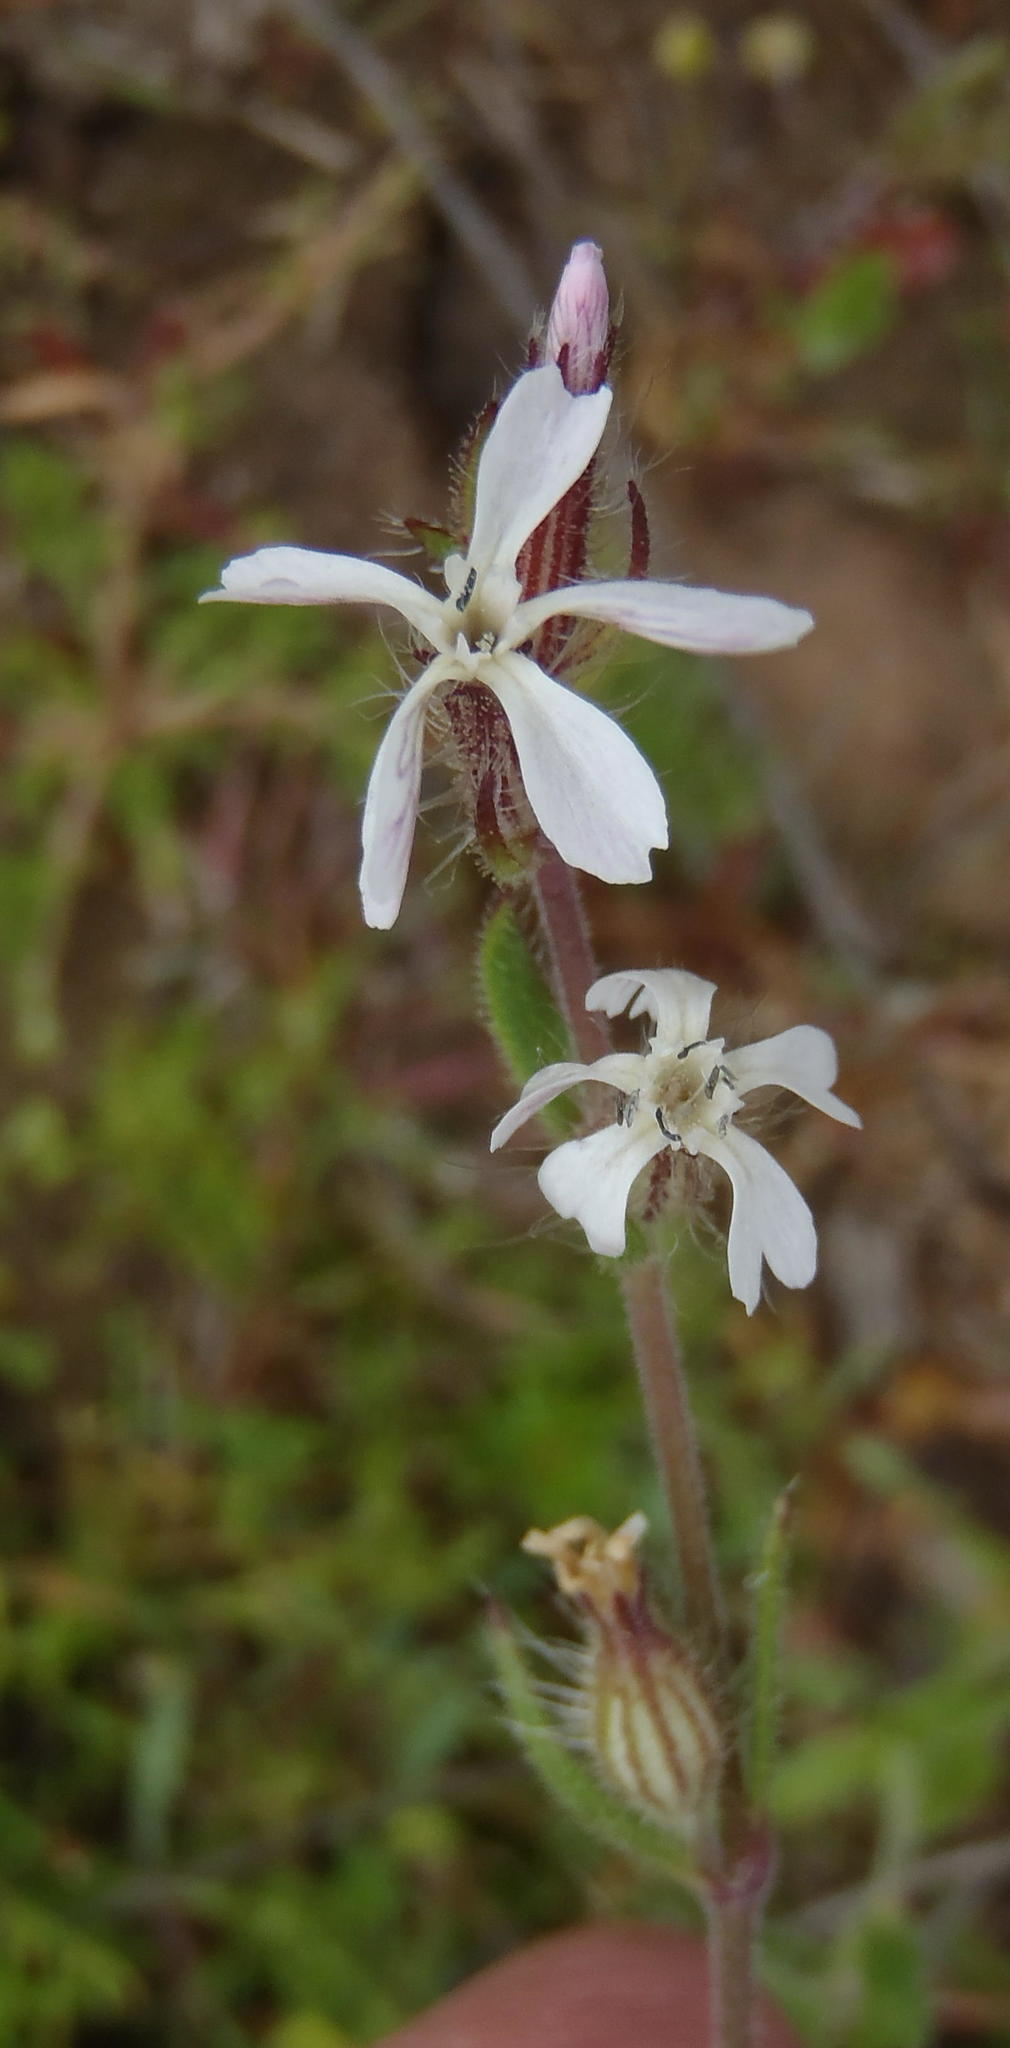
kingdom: Plantae
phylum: Tracheophyta
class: Magnoliopsida
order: Caryophyllales
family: Caryophyllaceae
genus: Silene
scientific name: Silene gallica
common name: Small-flowered catchfly
